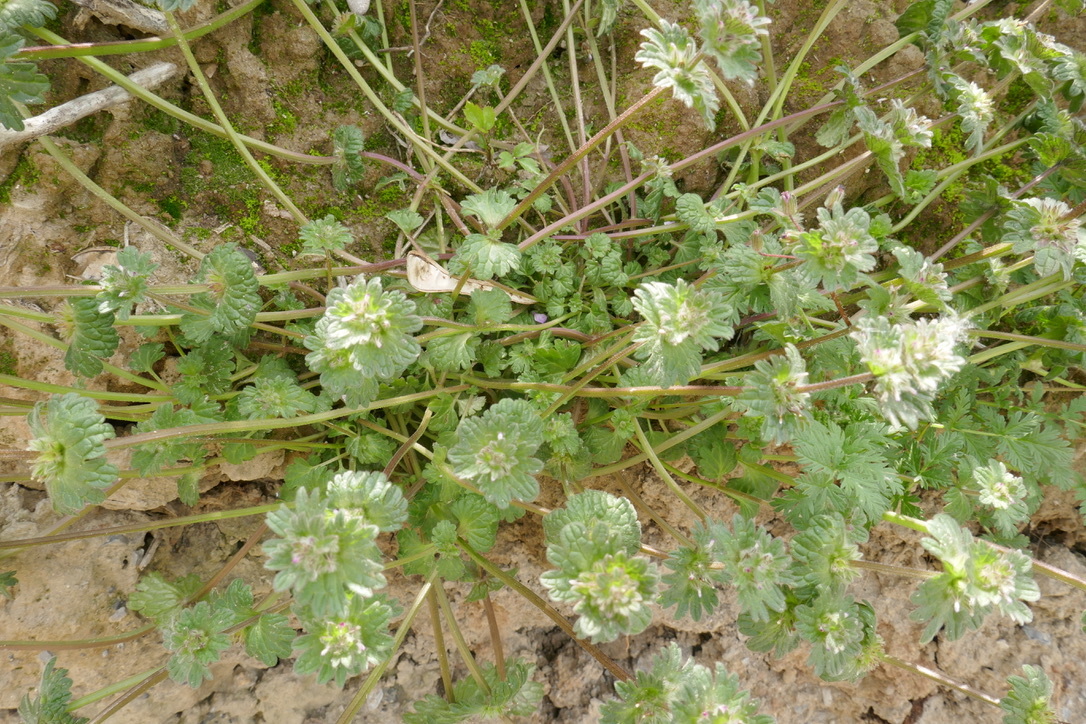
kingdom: Plantae
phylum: Tracheophyta
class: Magnoliopsida
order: Lamiales
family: Lamiaceae
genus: Lamium
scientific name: Lamium amplexicaule
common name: Henbit dead-nettle
